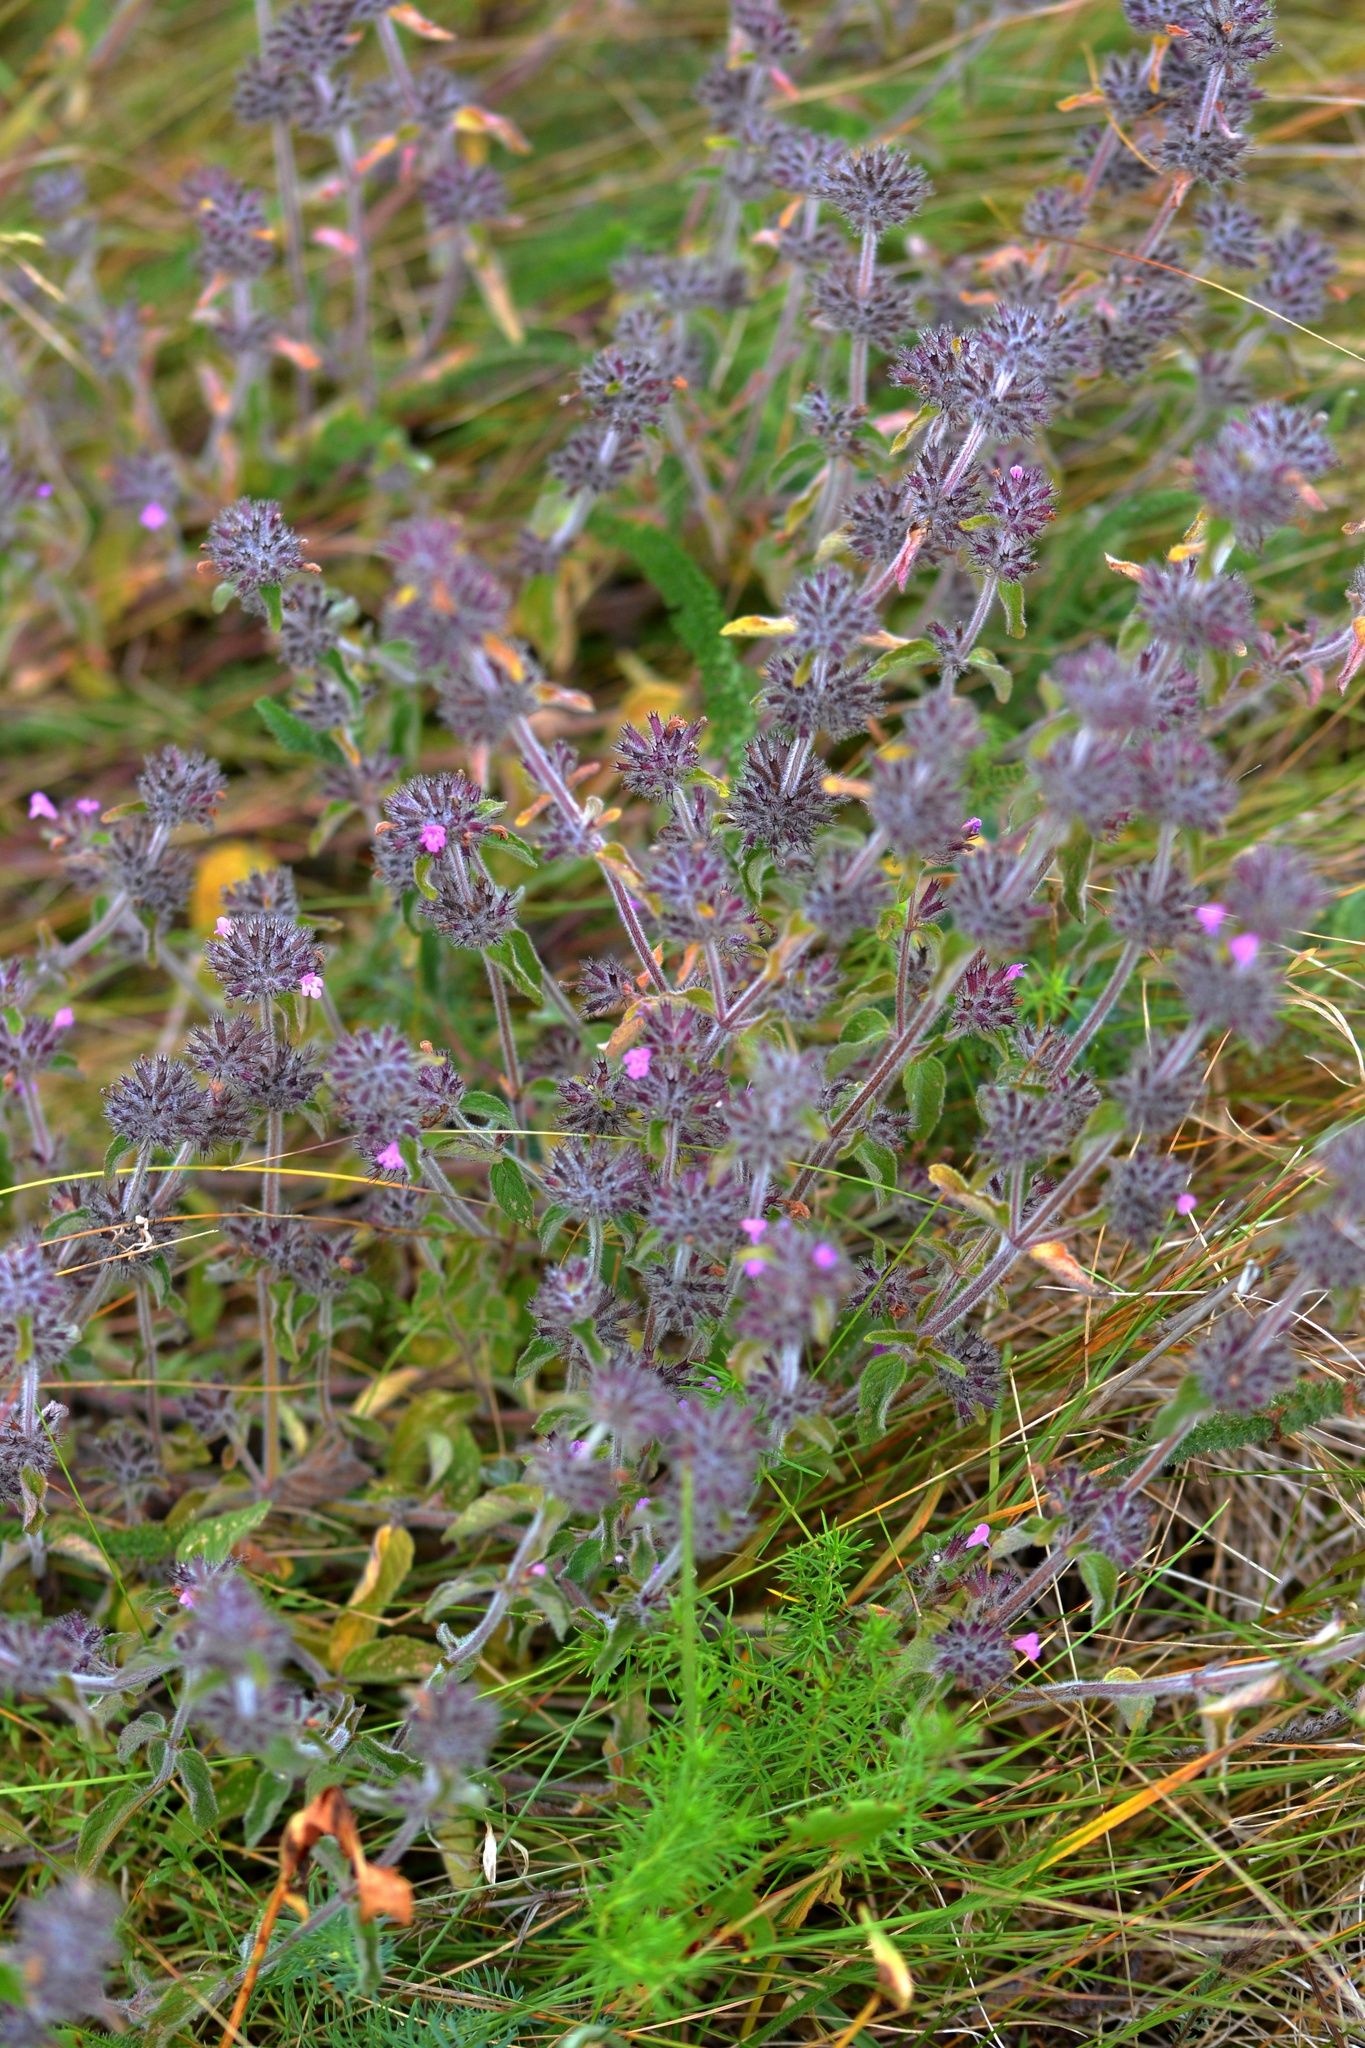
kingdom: Plantae
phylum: Tracheophyta
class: Magnoliopsida
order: Lamiales
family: Lamiaceae
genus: Clinopodium
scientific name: Clinopodium vulgare
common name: Wild basil
